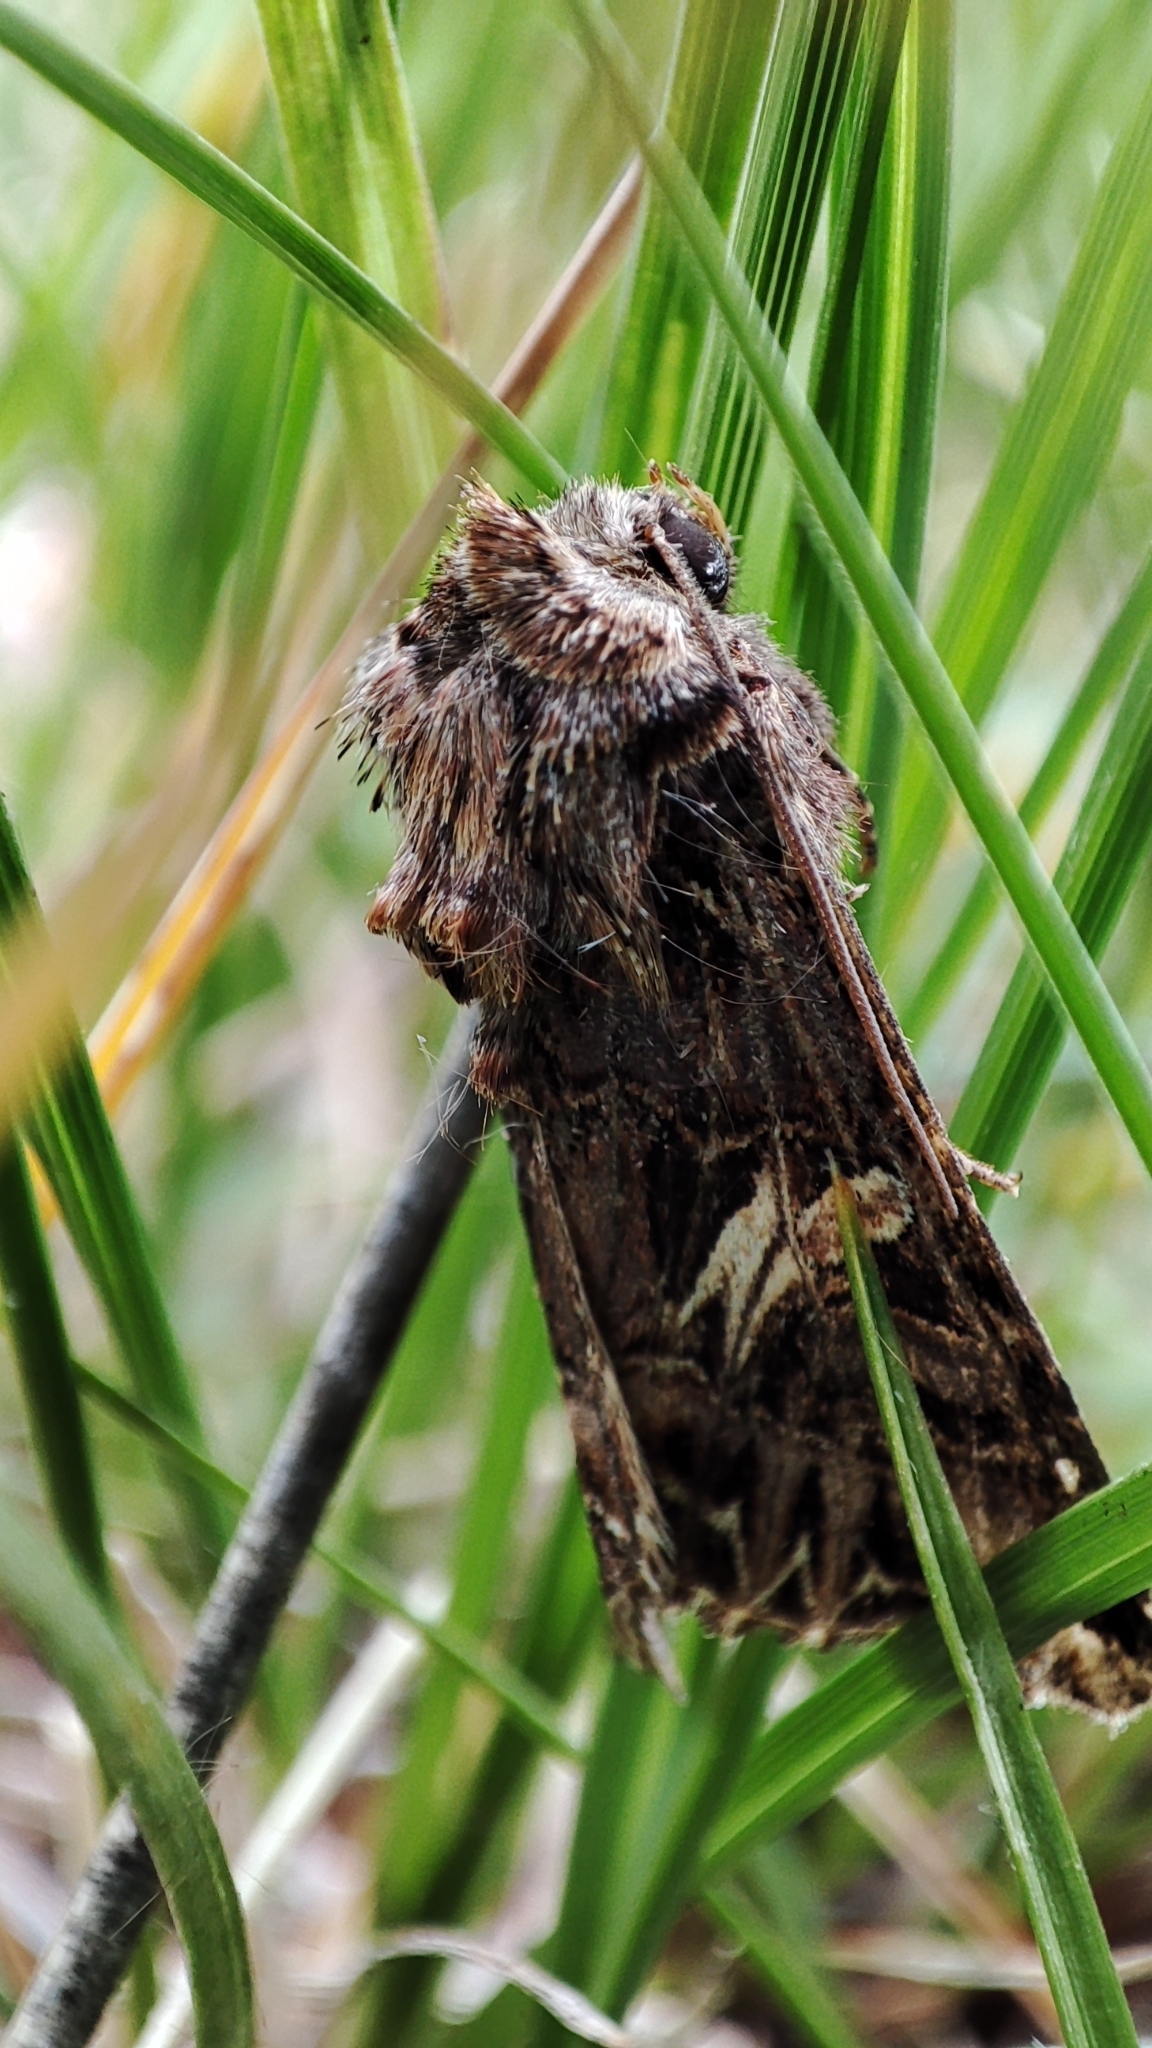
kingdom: Animalia
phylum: Arthropoda
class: Insecta
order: Lepidoptera
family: Noctuidae
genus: Anarta
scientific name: Anarta imperspicua
